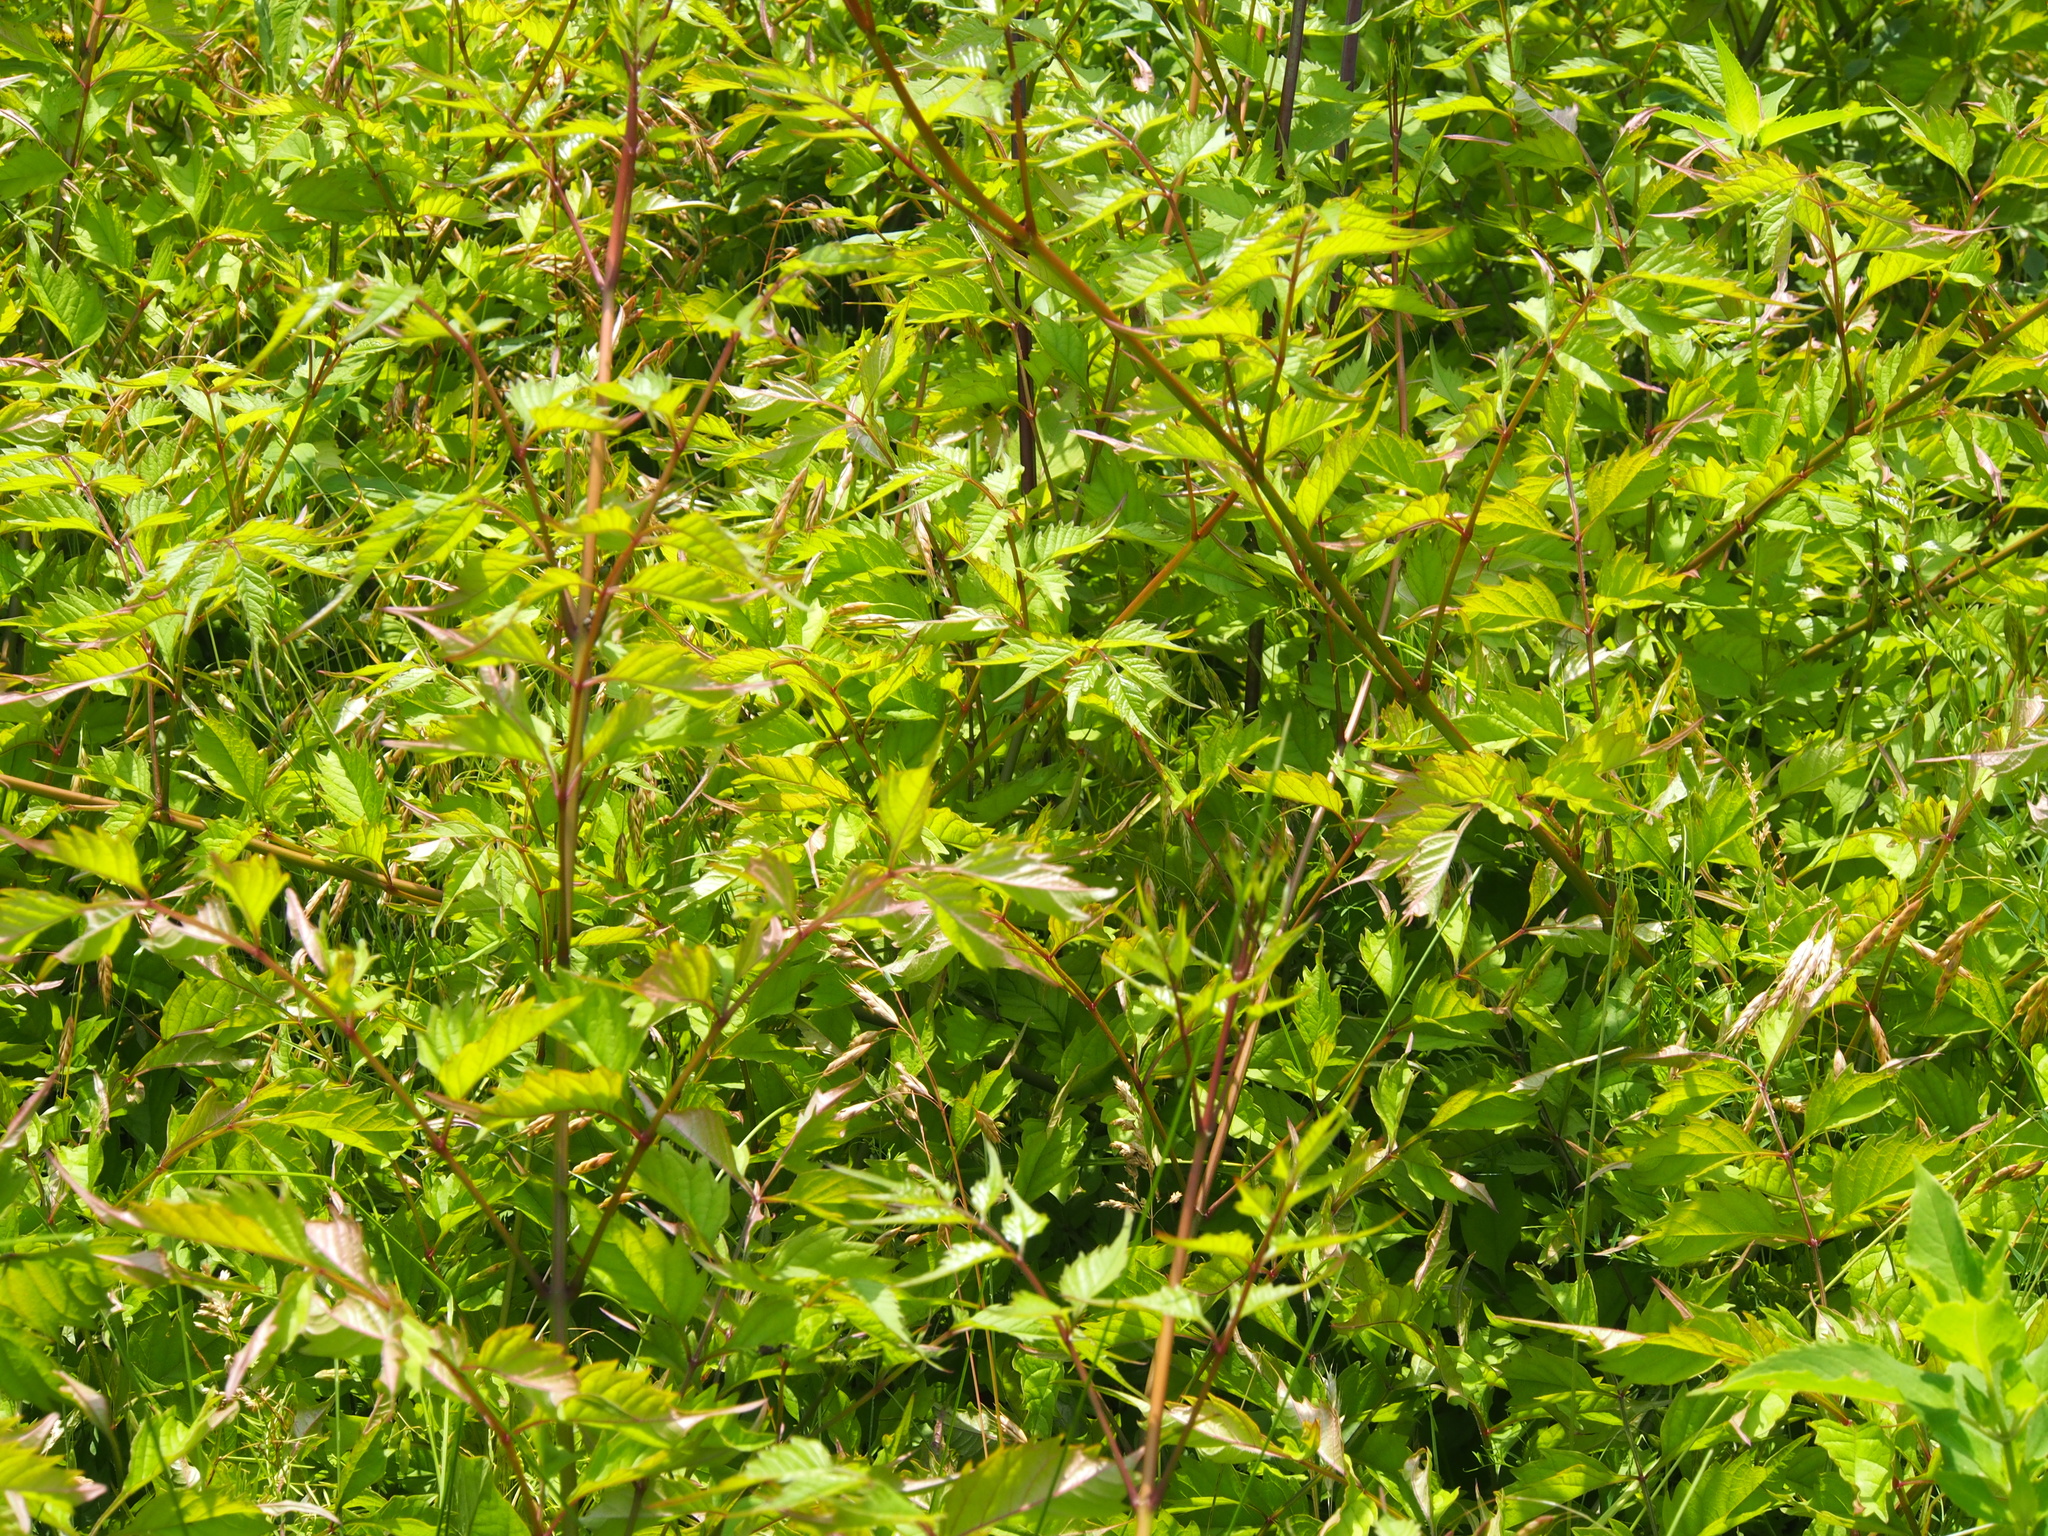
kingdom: Plantae
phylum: Tracheophyta
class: Magnoliopsida
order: Lamiales
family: Bignoniaceae
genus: Campsis
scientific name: Campsis radicans
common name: Trumpet-creeper
